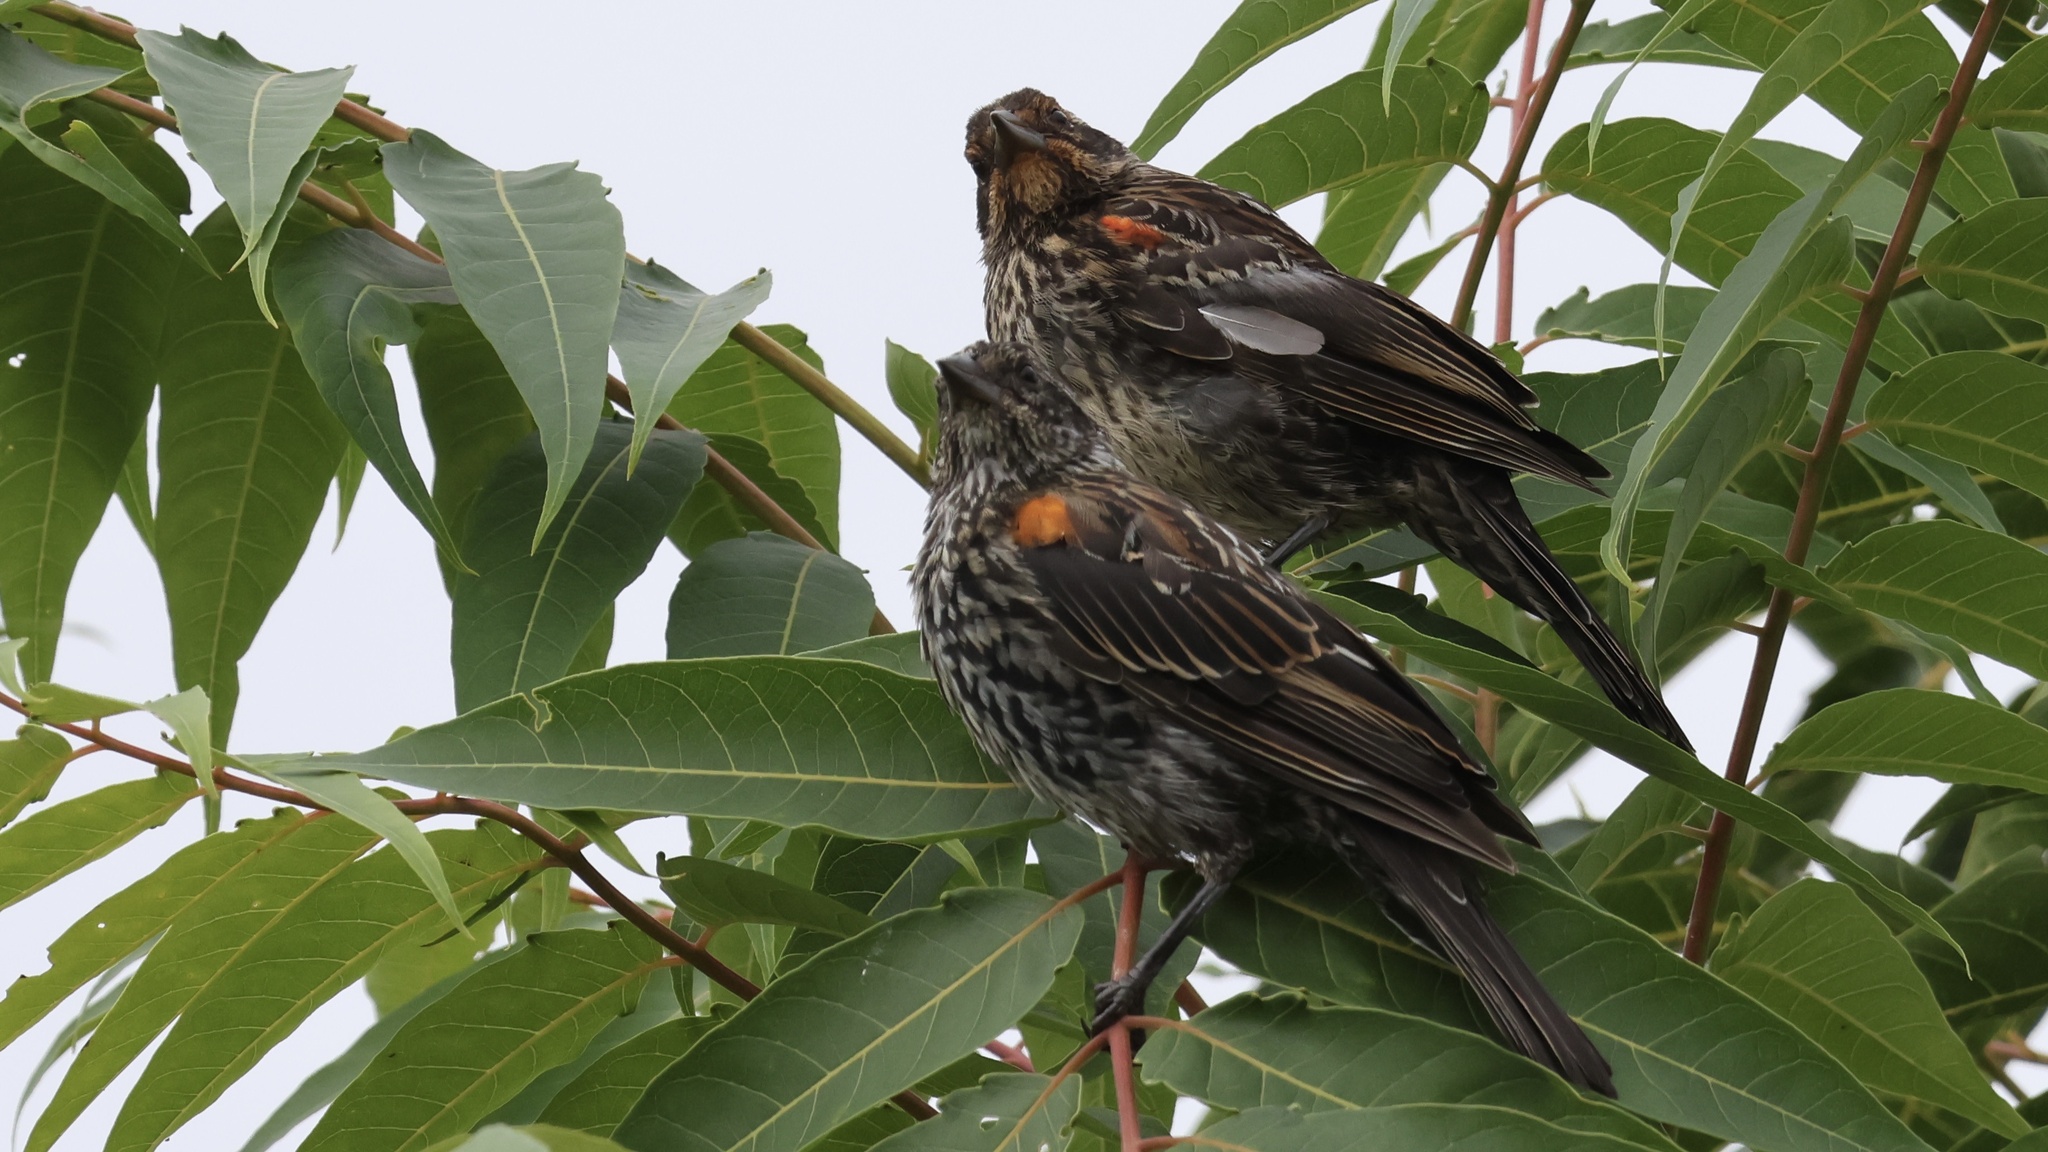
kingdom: Animalia
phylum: Chordata
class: Aves
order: Passeriformes
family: Icteridae
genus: Agelaius
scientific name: Agelaius phoeniceus
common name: Red-winged blackbird
